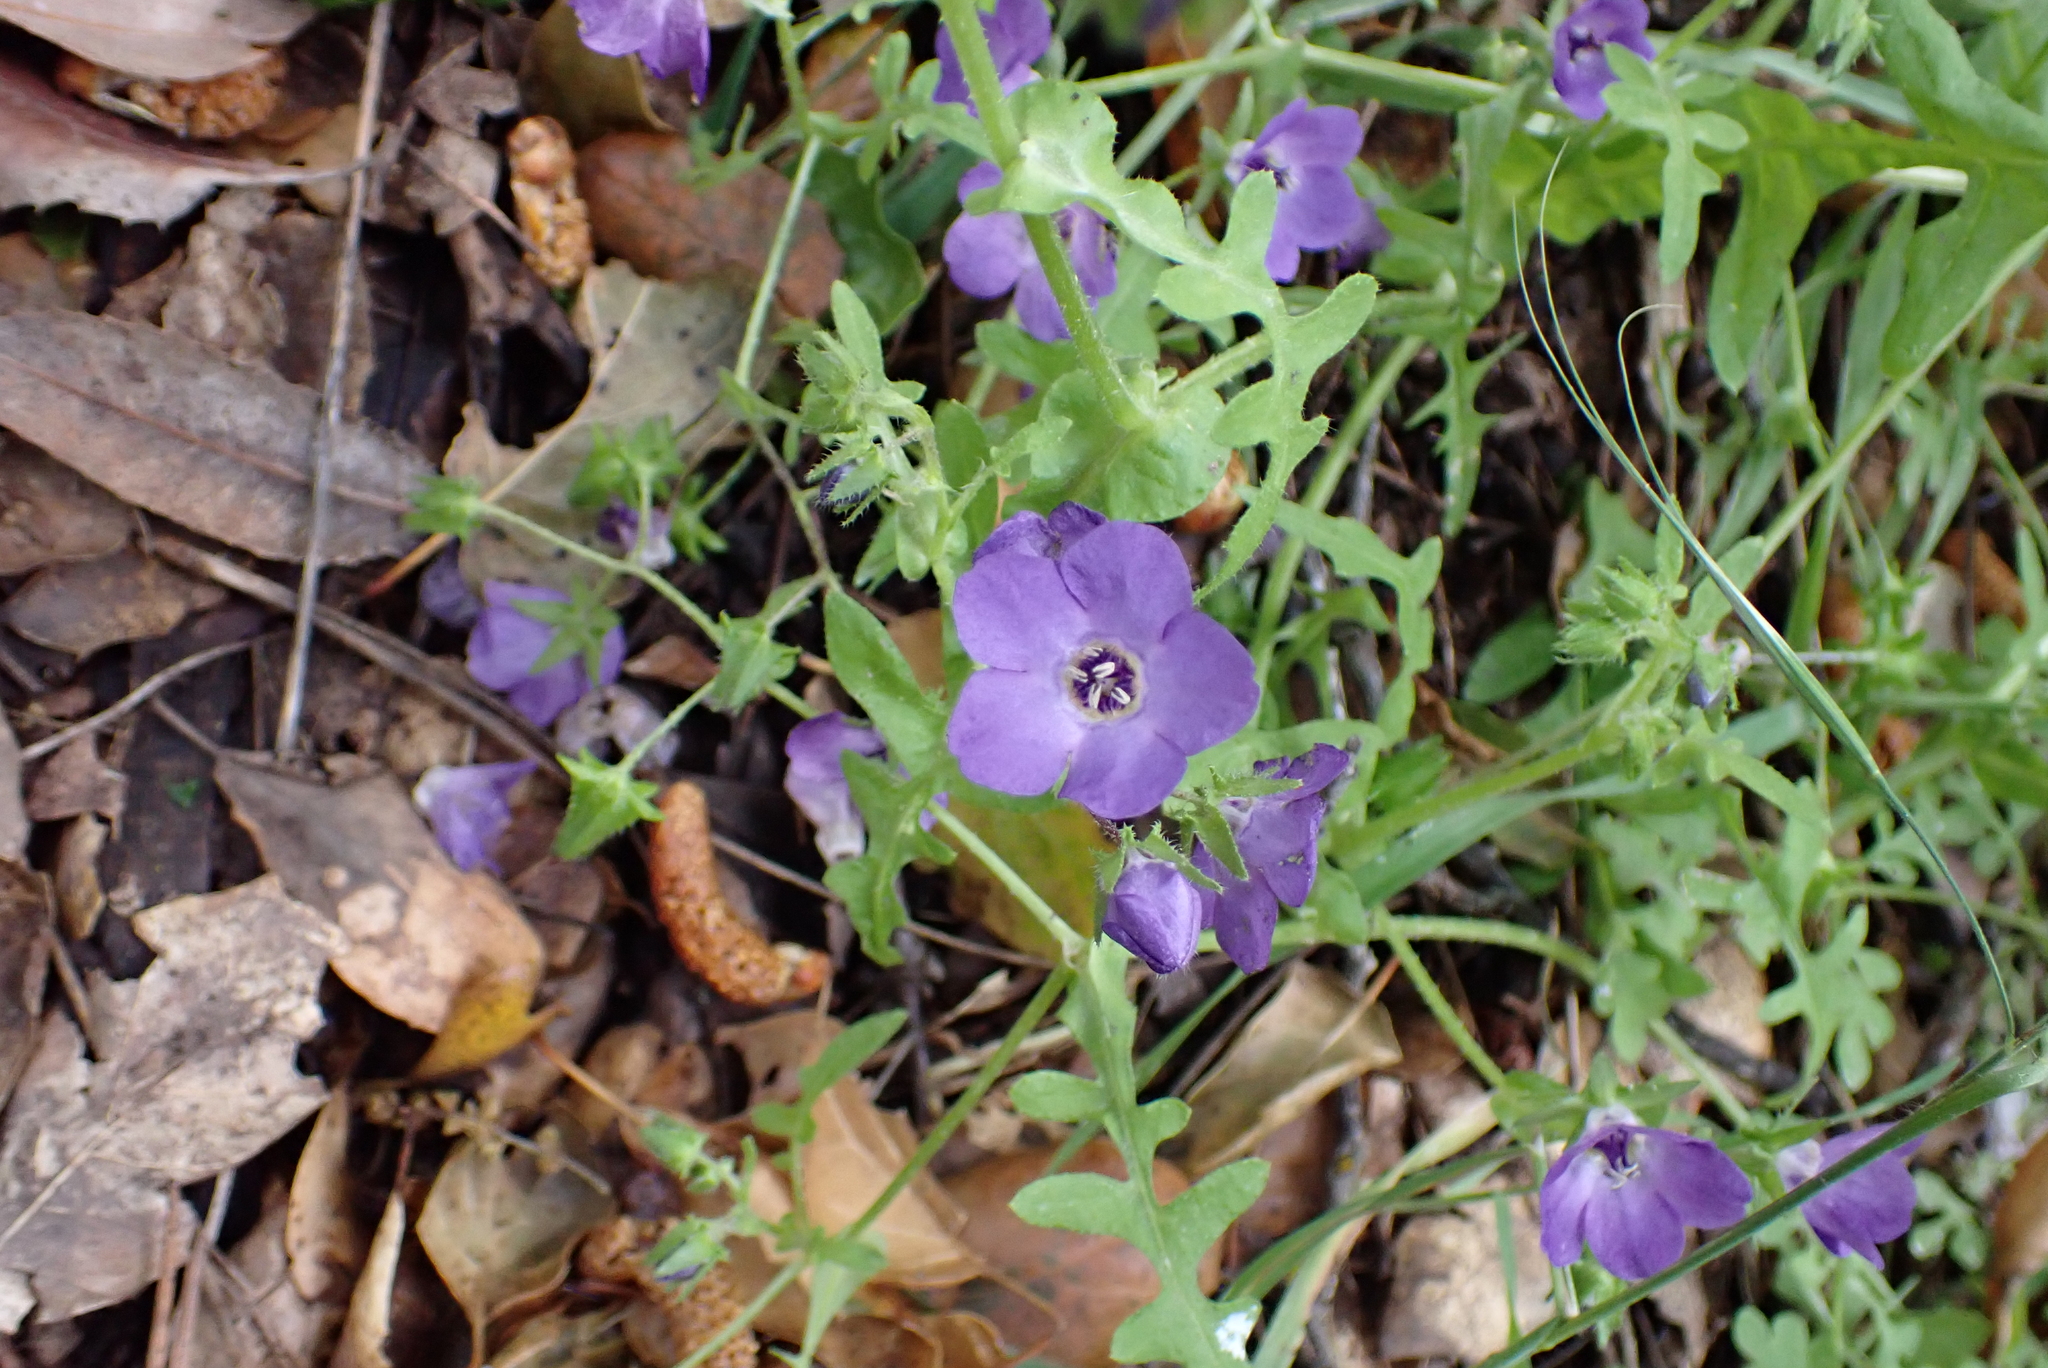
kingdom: Plantae
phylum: Tracheophyta
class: Magnoliopsida
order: Boraginales
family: Hydrophyllaceae
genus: Pholistoma
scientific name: Pholistoma auritum
